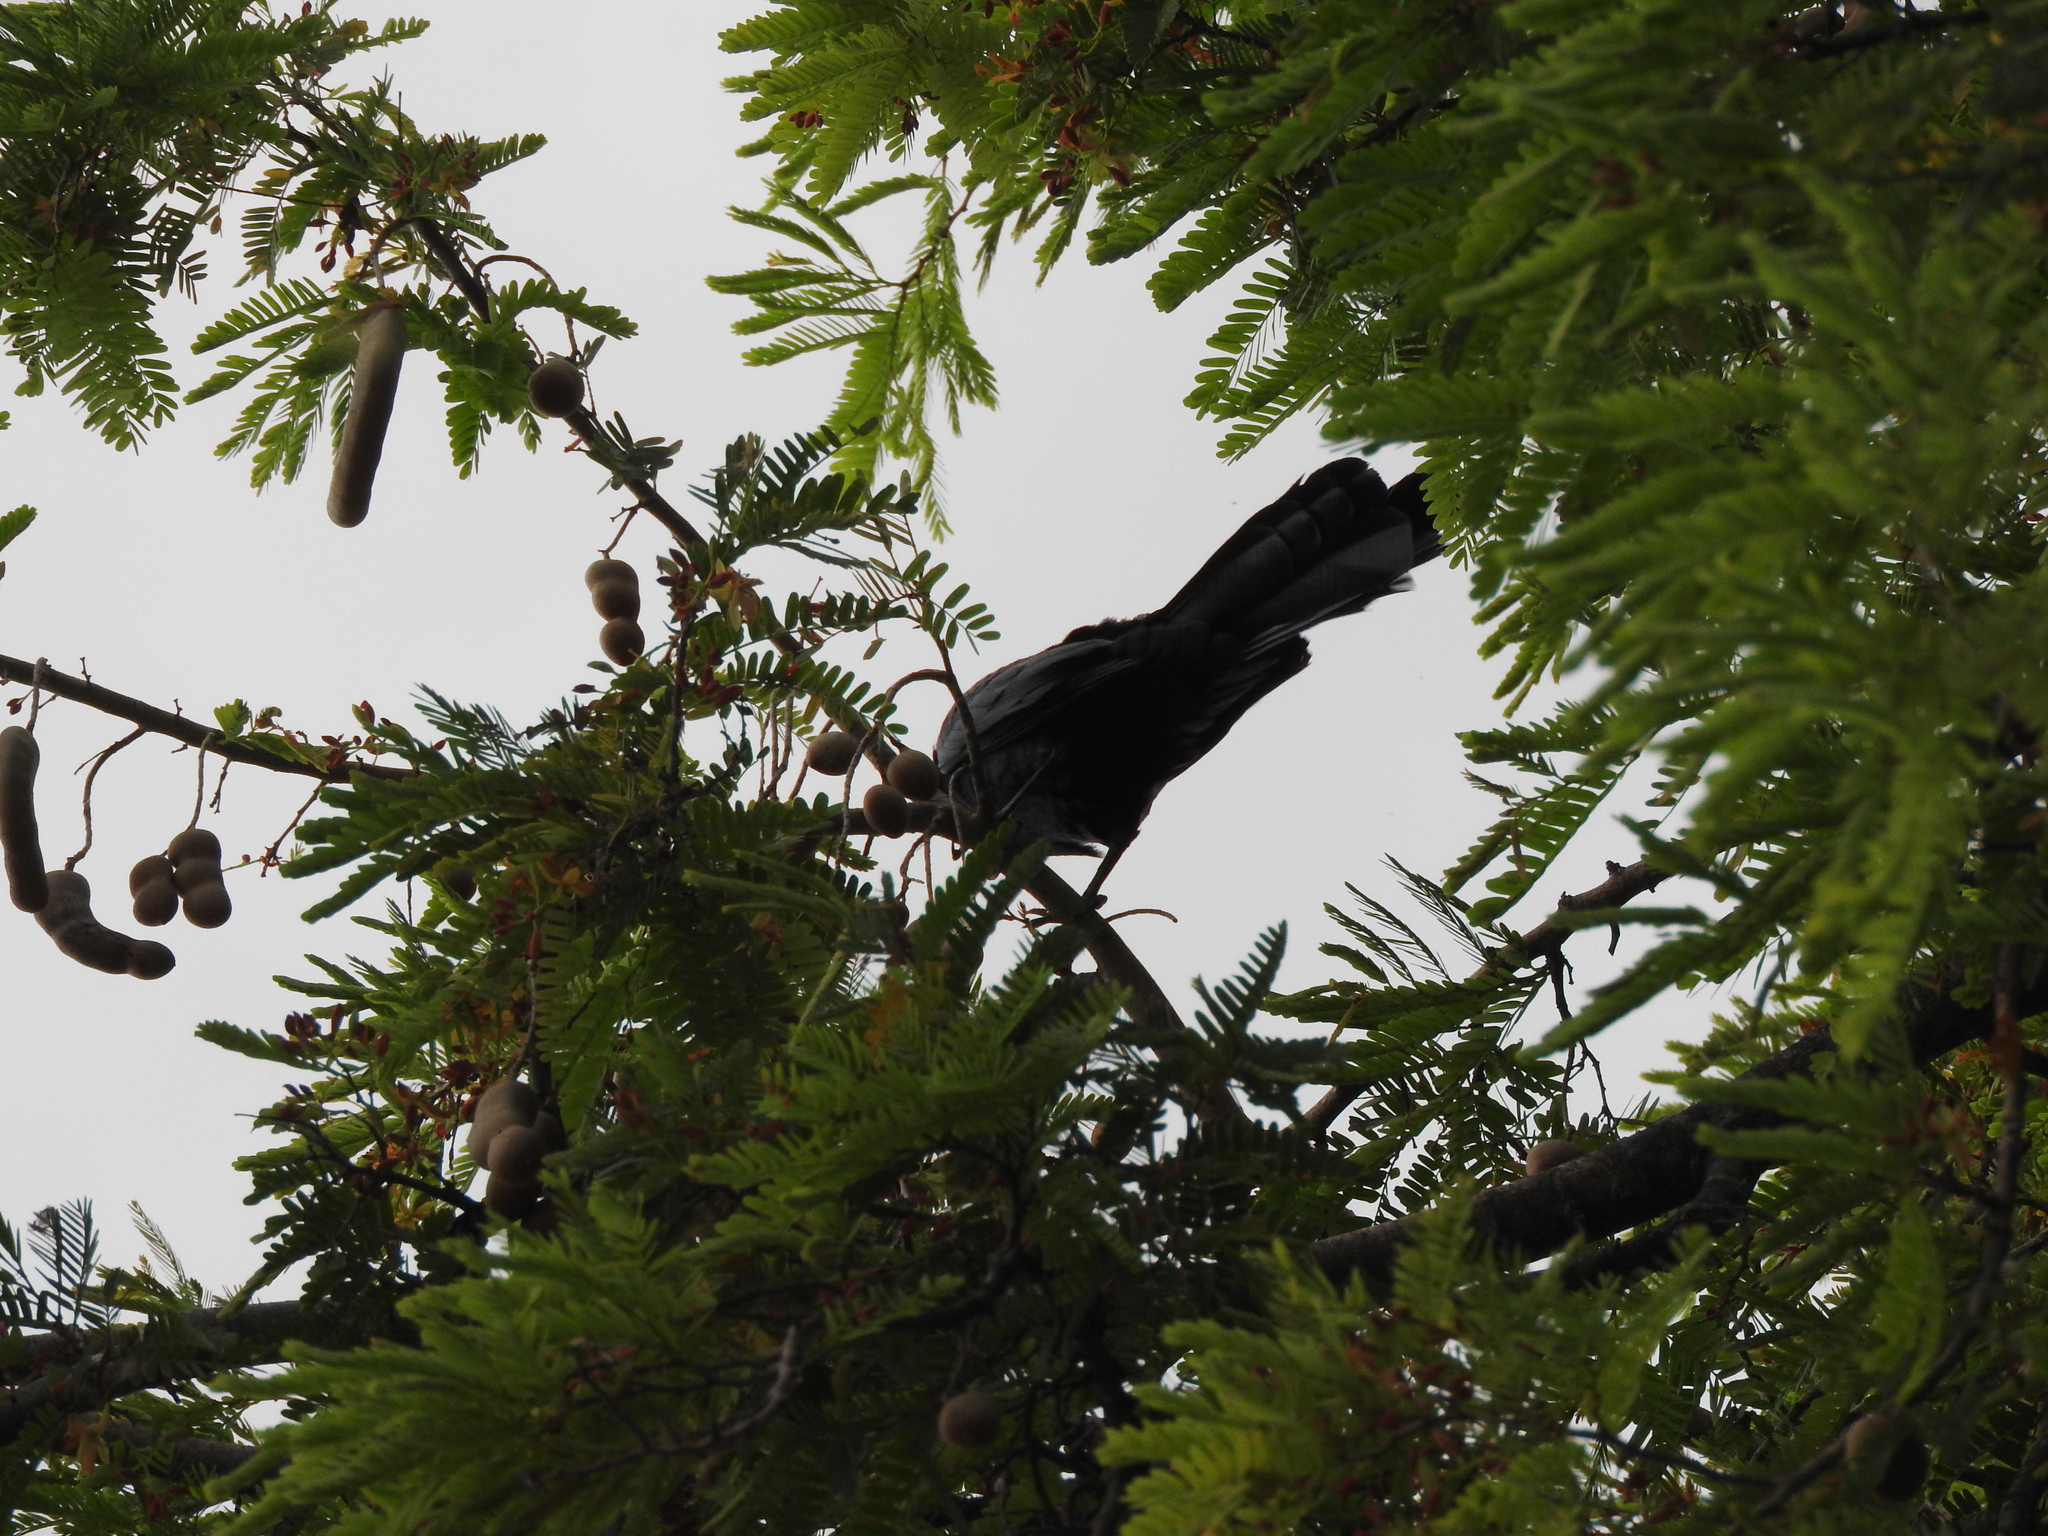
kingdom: Animalia
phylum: Chordata
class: Aves
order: Passeriformes
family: Icteridae
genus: Quiscalus
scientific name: Quiscalus mexicanus
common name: Great-tailed grackle
